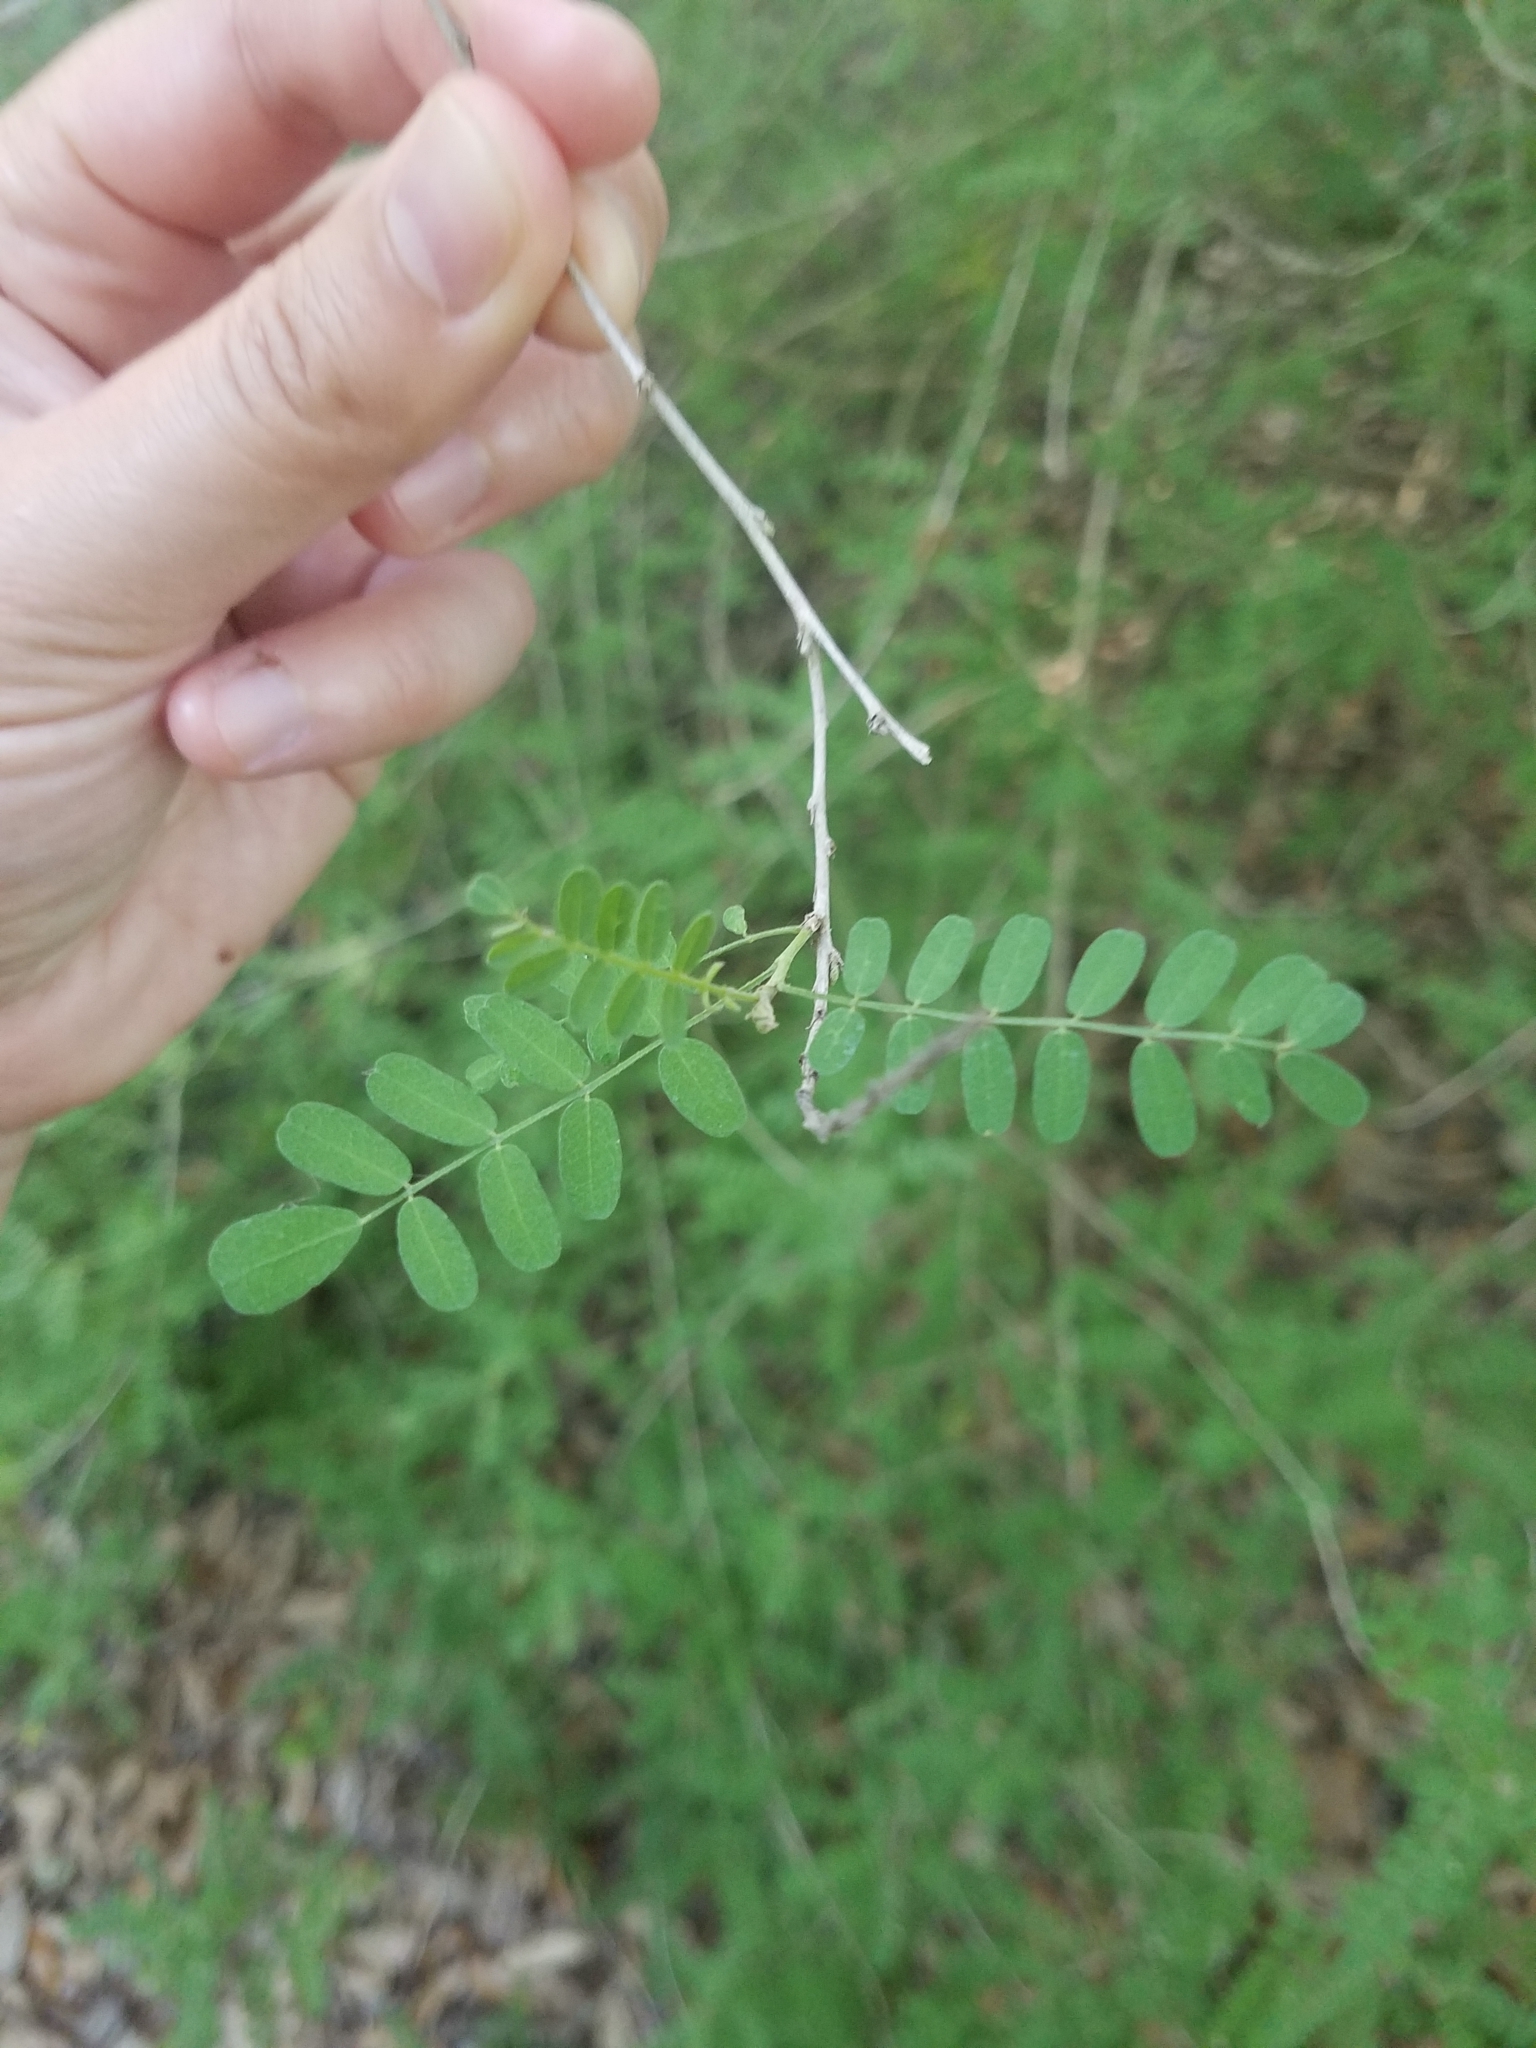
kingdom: Plantae
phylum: Tracheophyta
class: Magnoliopsida
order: Fabales
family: Fabaceae
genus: Eysenhardtia
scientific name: Eysenhardtia texana
